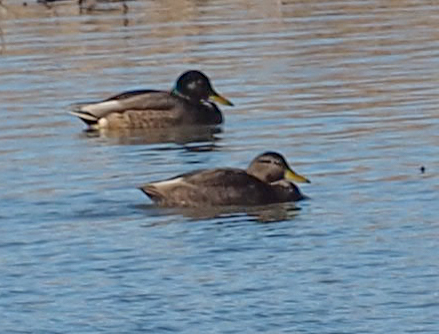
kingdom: Animalia
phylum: Chordata
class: Aves
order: Anseriformes
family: Anatidae
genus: Anas
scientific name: Anas rubripes
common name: American black duck
